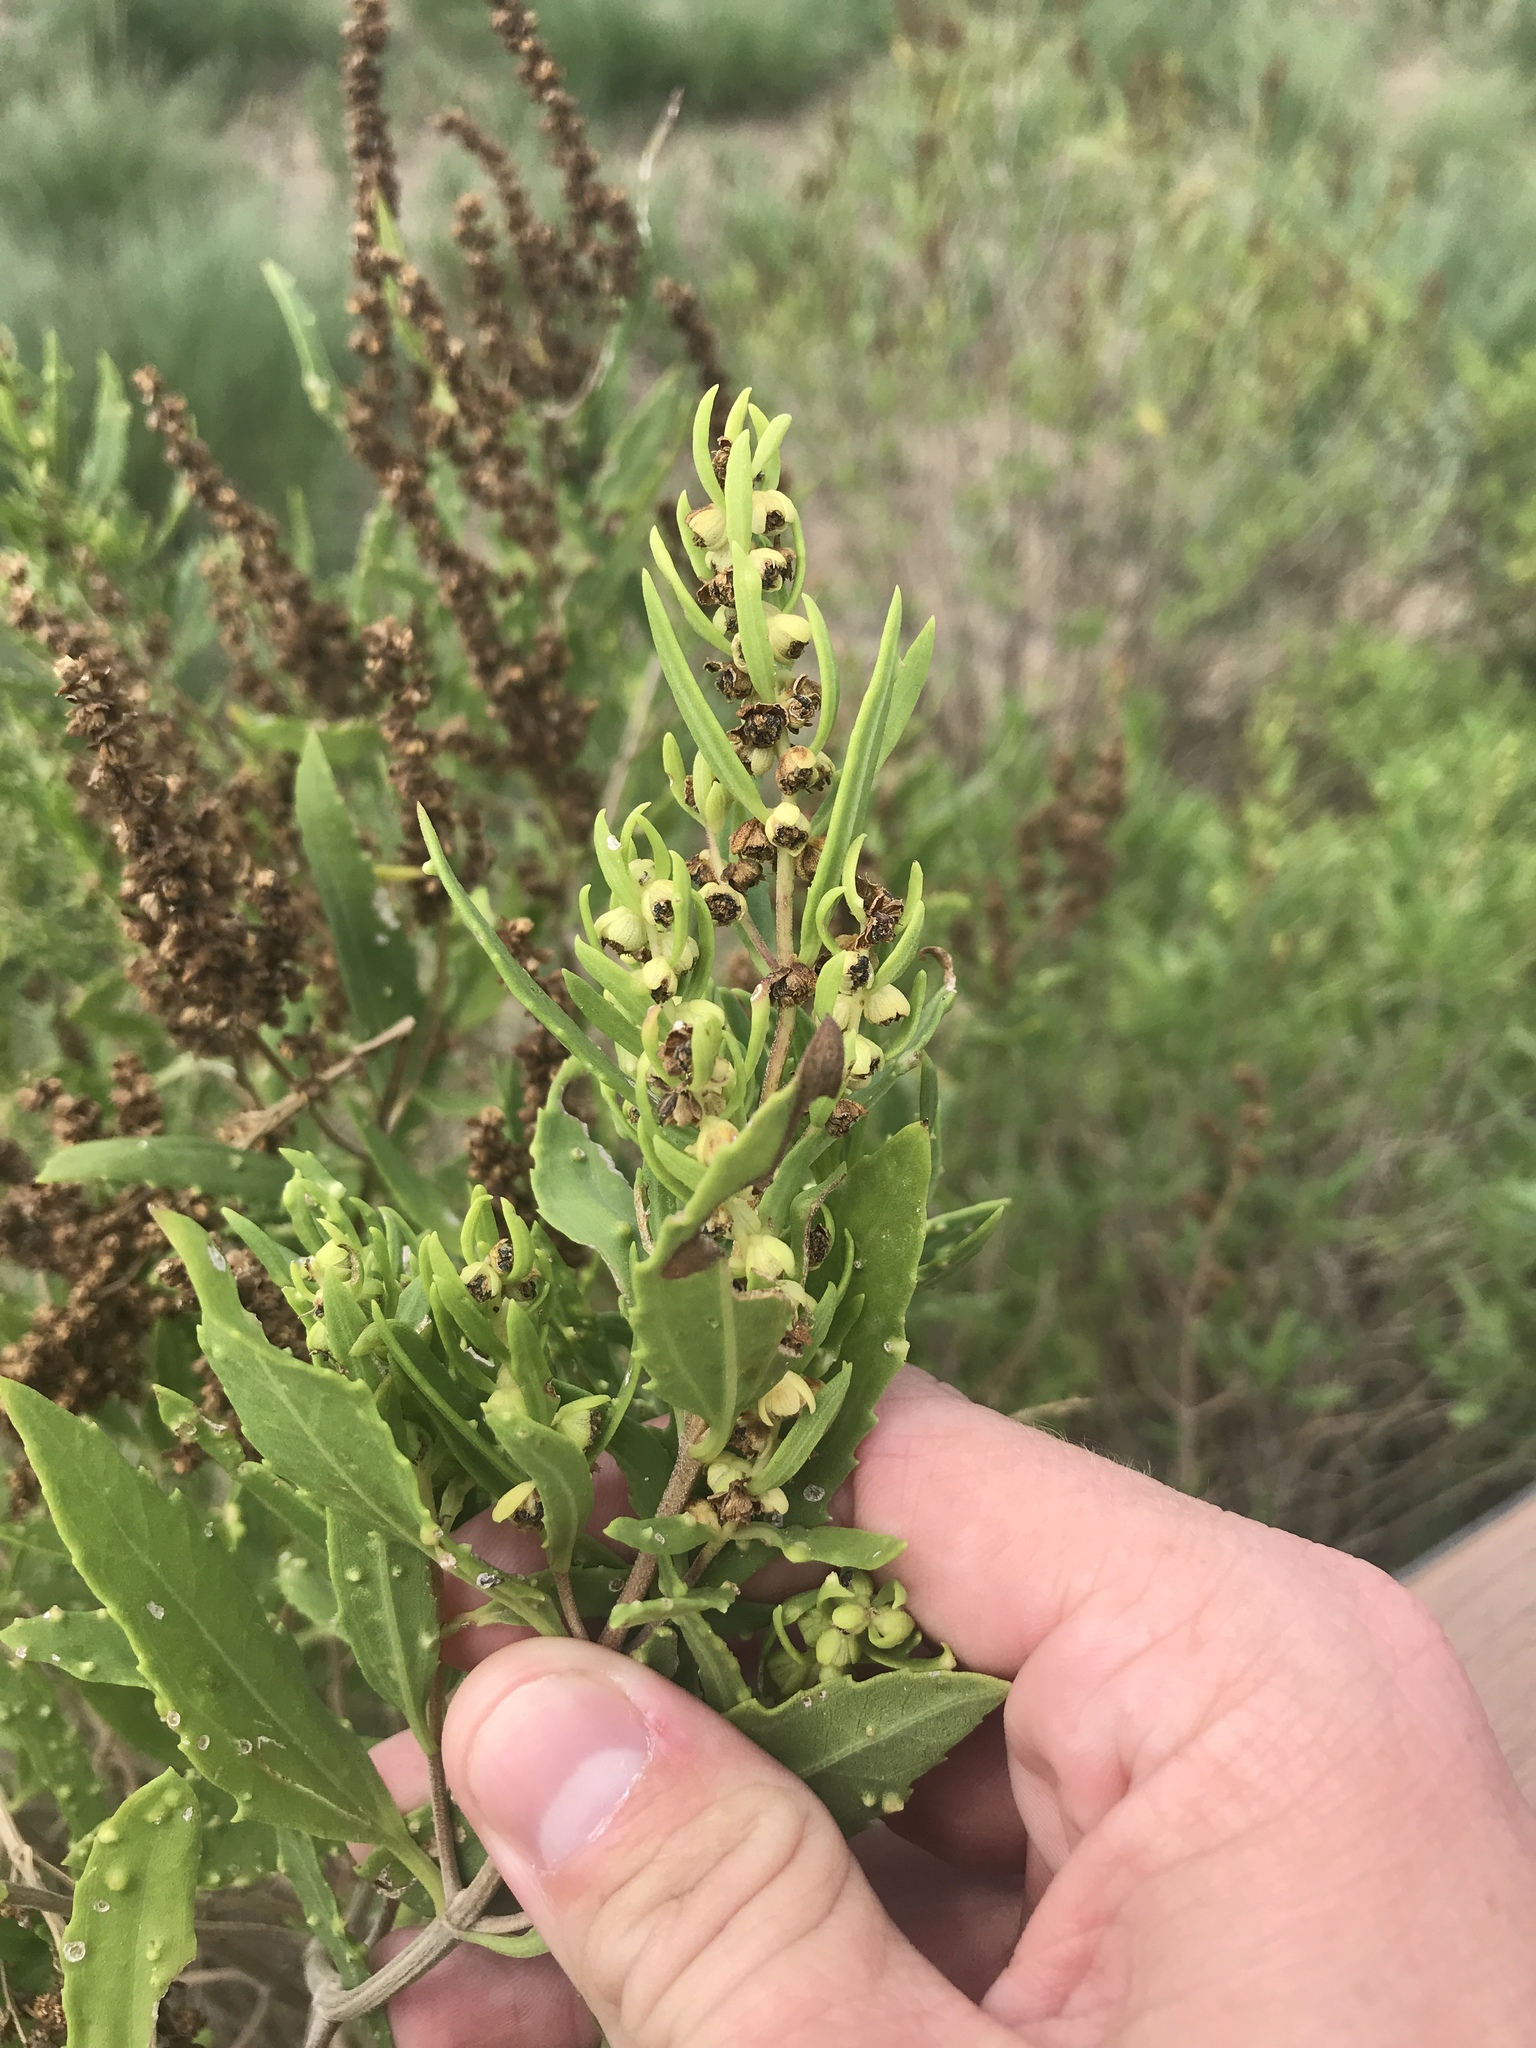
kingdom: Plantae
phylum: Tracheophyta
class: Magnoliopsida
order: Asterales
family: Asteraceae
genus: Iva
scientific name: Iva frutescens
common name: Big-leaved marsh-elder
